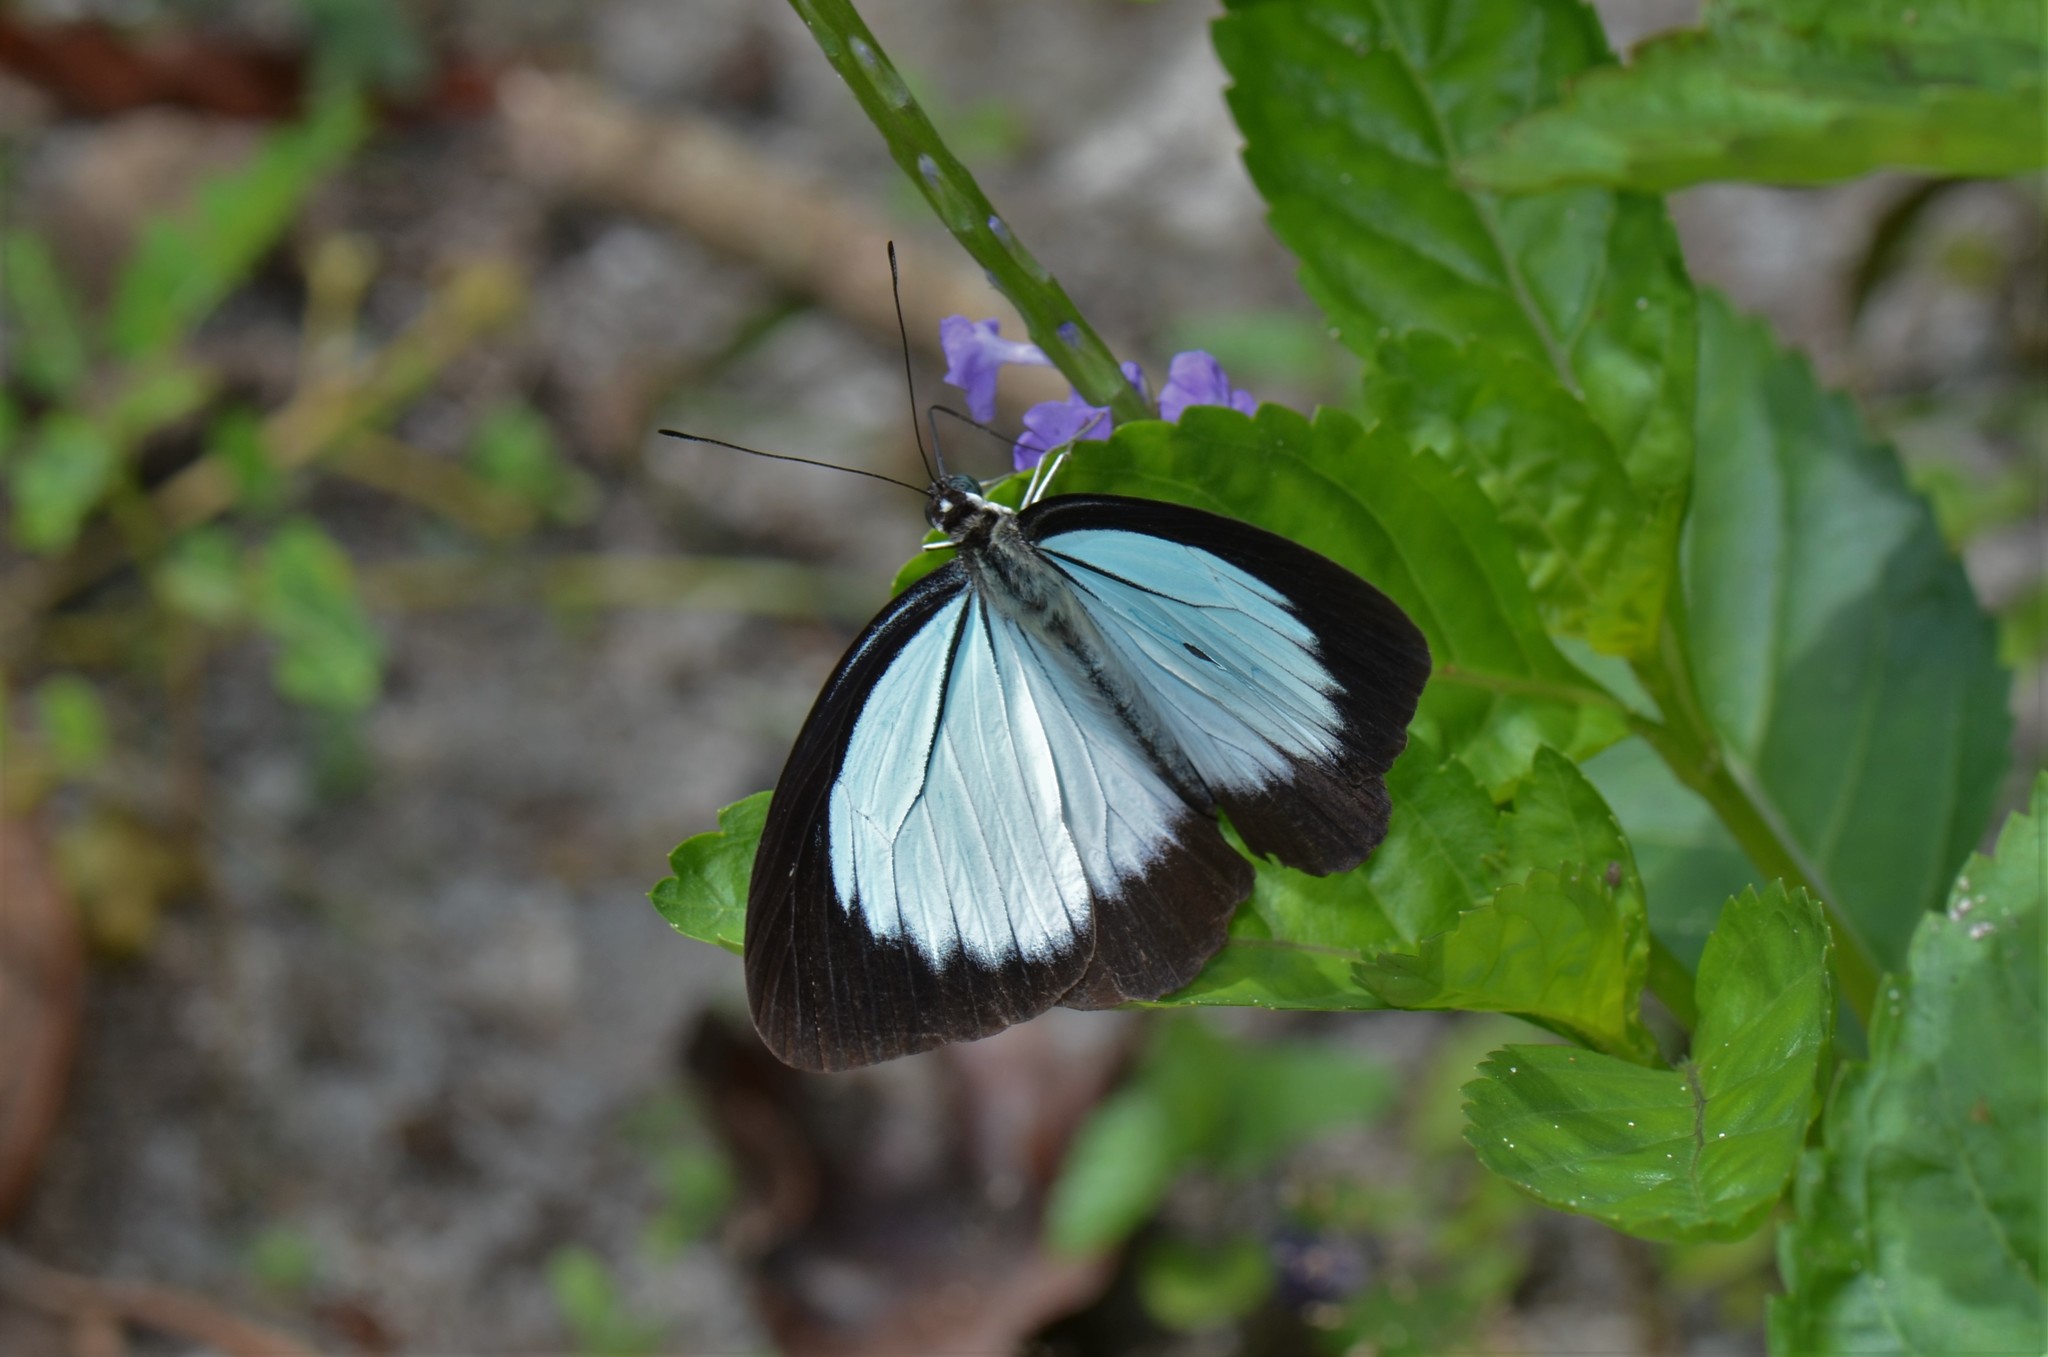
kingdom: Animalia
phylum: Arthropoda
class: Insecta
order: Lepidoptera
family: Pieridae
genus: Pareronia
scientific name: Pareronia jobaea
